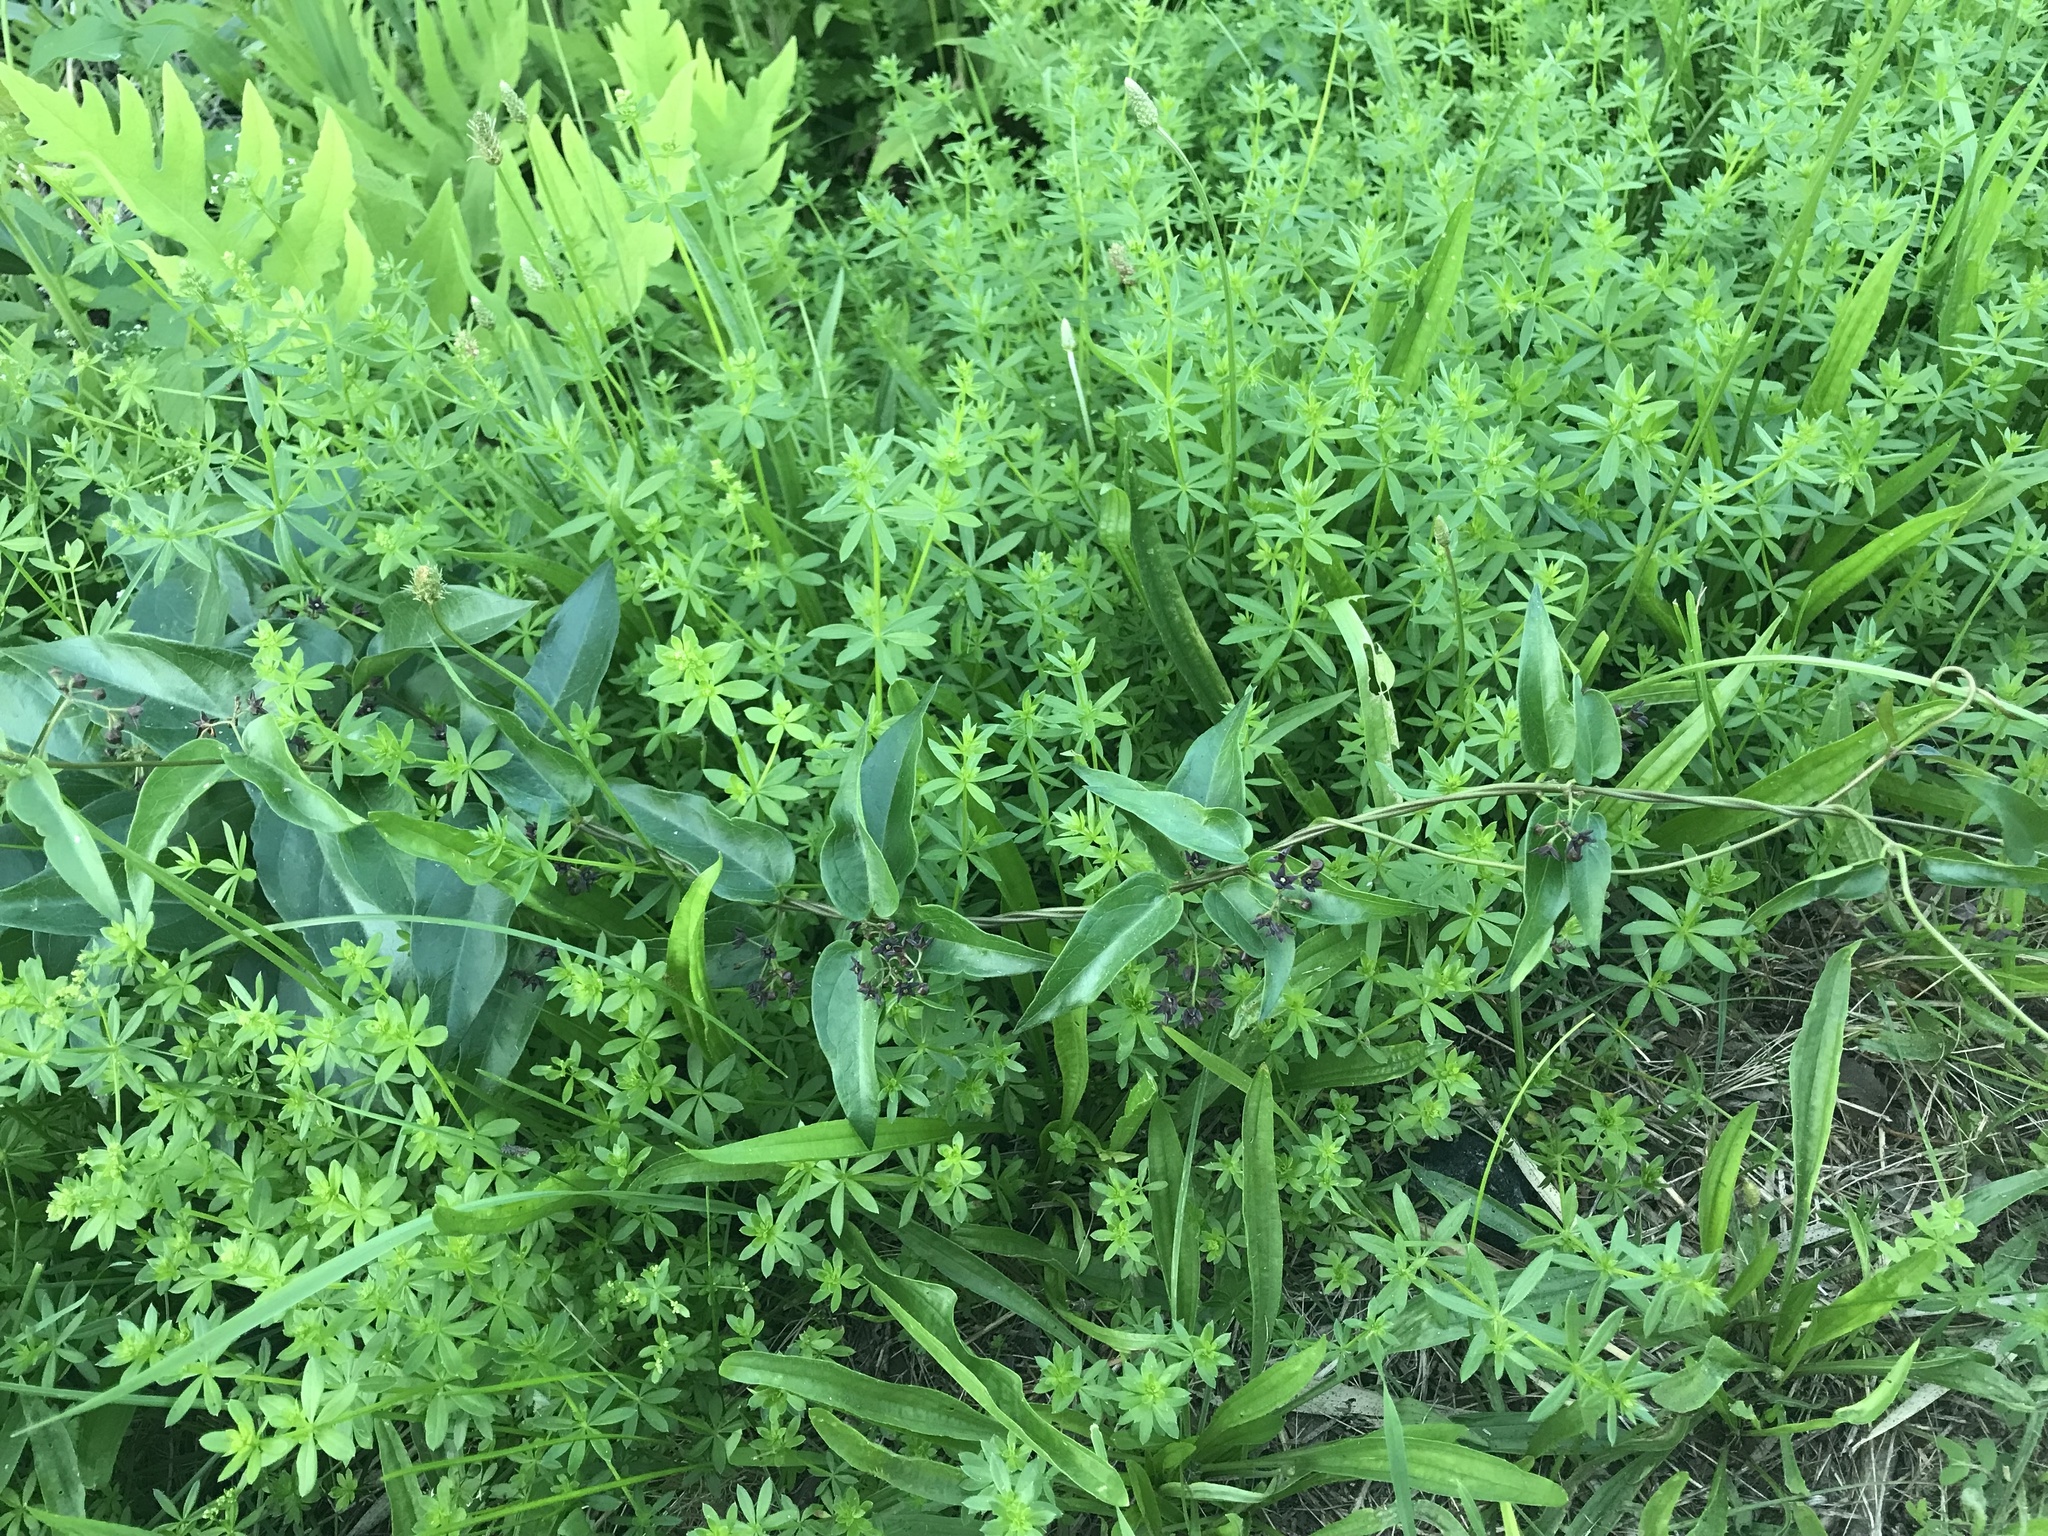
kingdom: Plantae
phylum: Tracheophyta
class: Magnoliopsida
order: Gentianales
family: Apocynaceae
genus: Vincetoxicum
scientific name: Vincetoxicum nigrum
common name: Black swallow-wort
